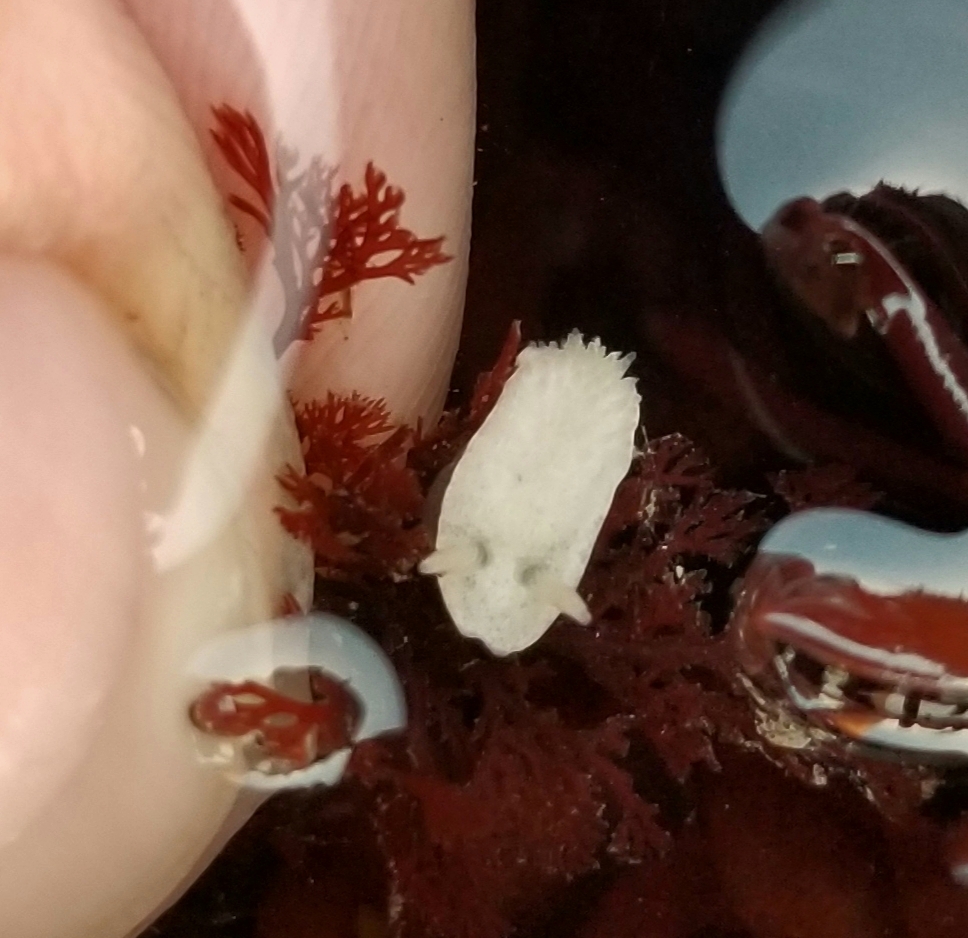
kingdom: Animalia
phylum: Mollusca
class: Gastropoda
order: Nudibranchia
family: Calycidorididae
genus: Diaphorodoris
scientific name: Diaphorodoris lirulatocauda
